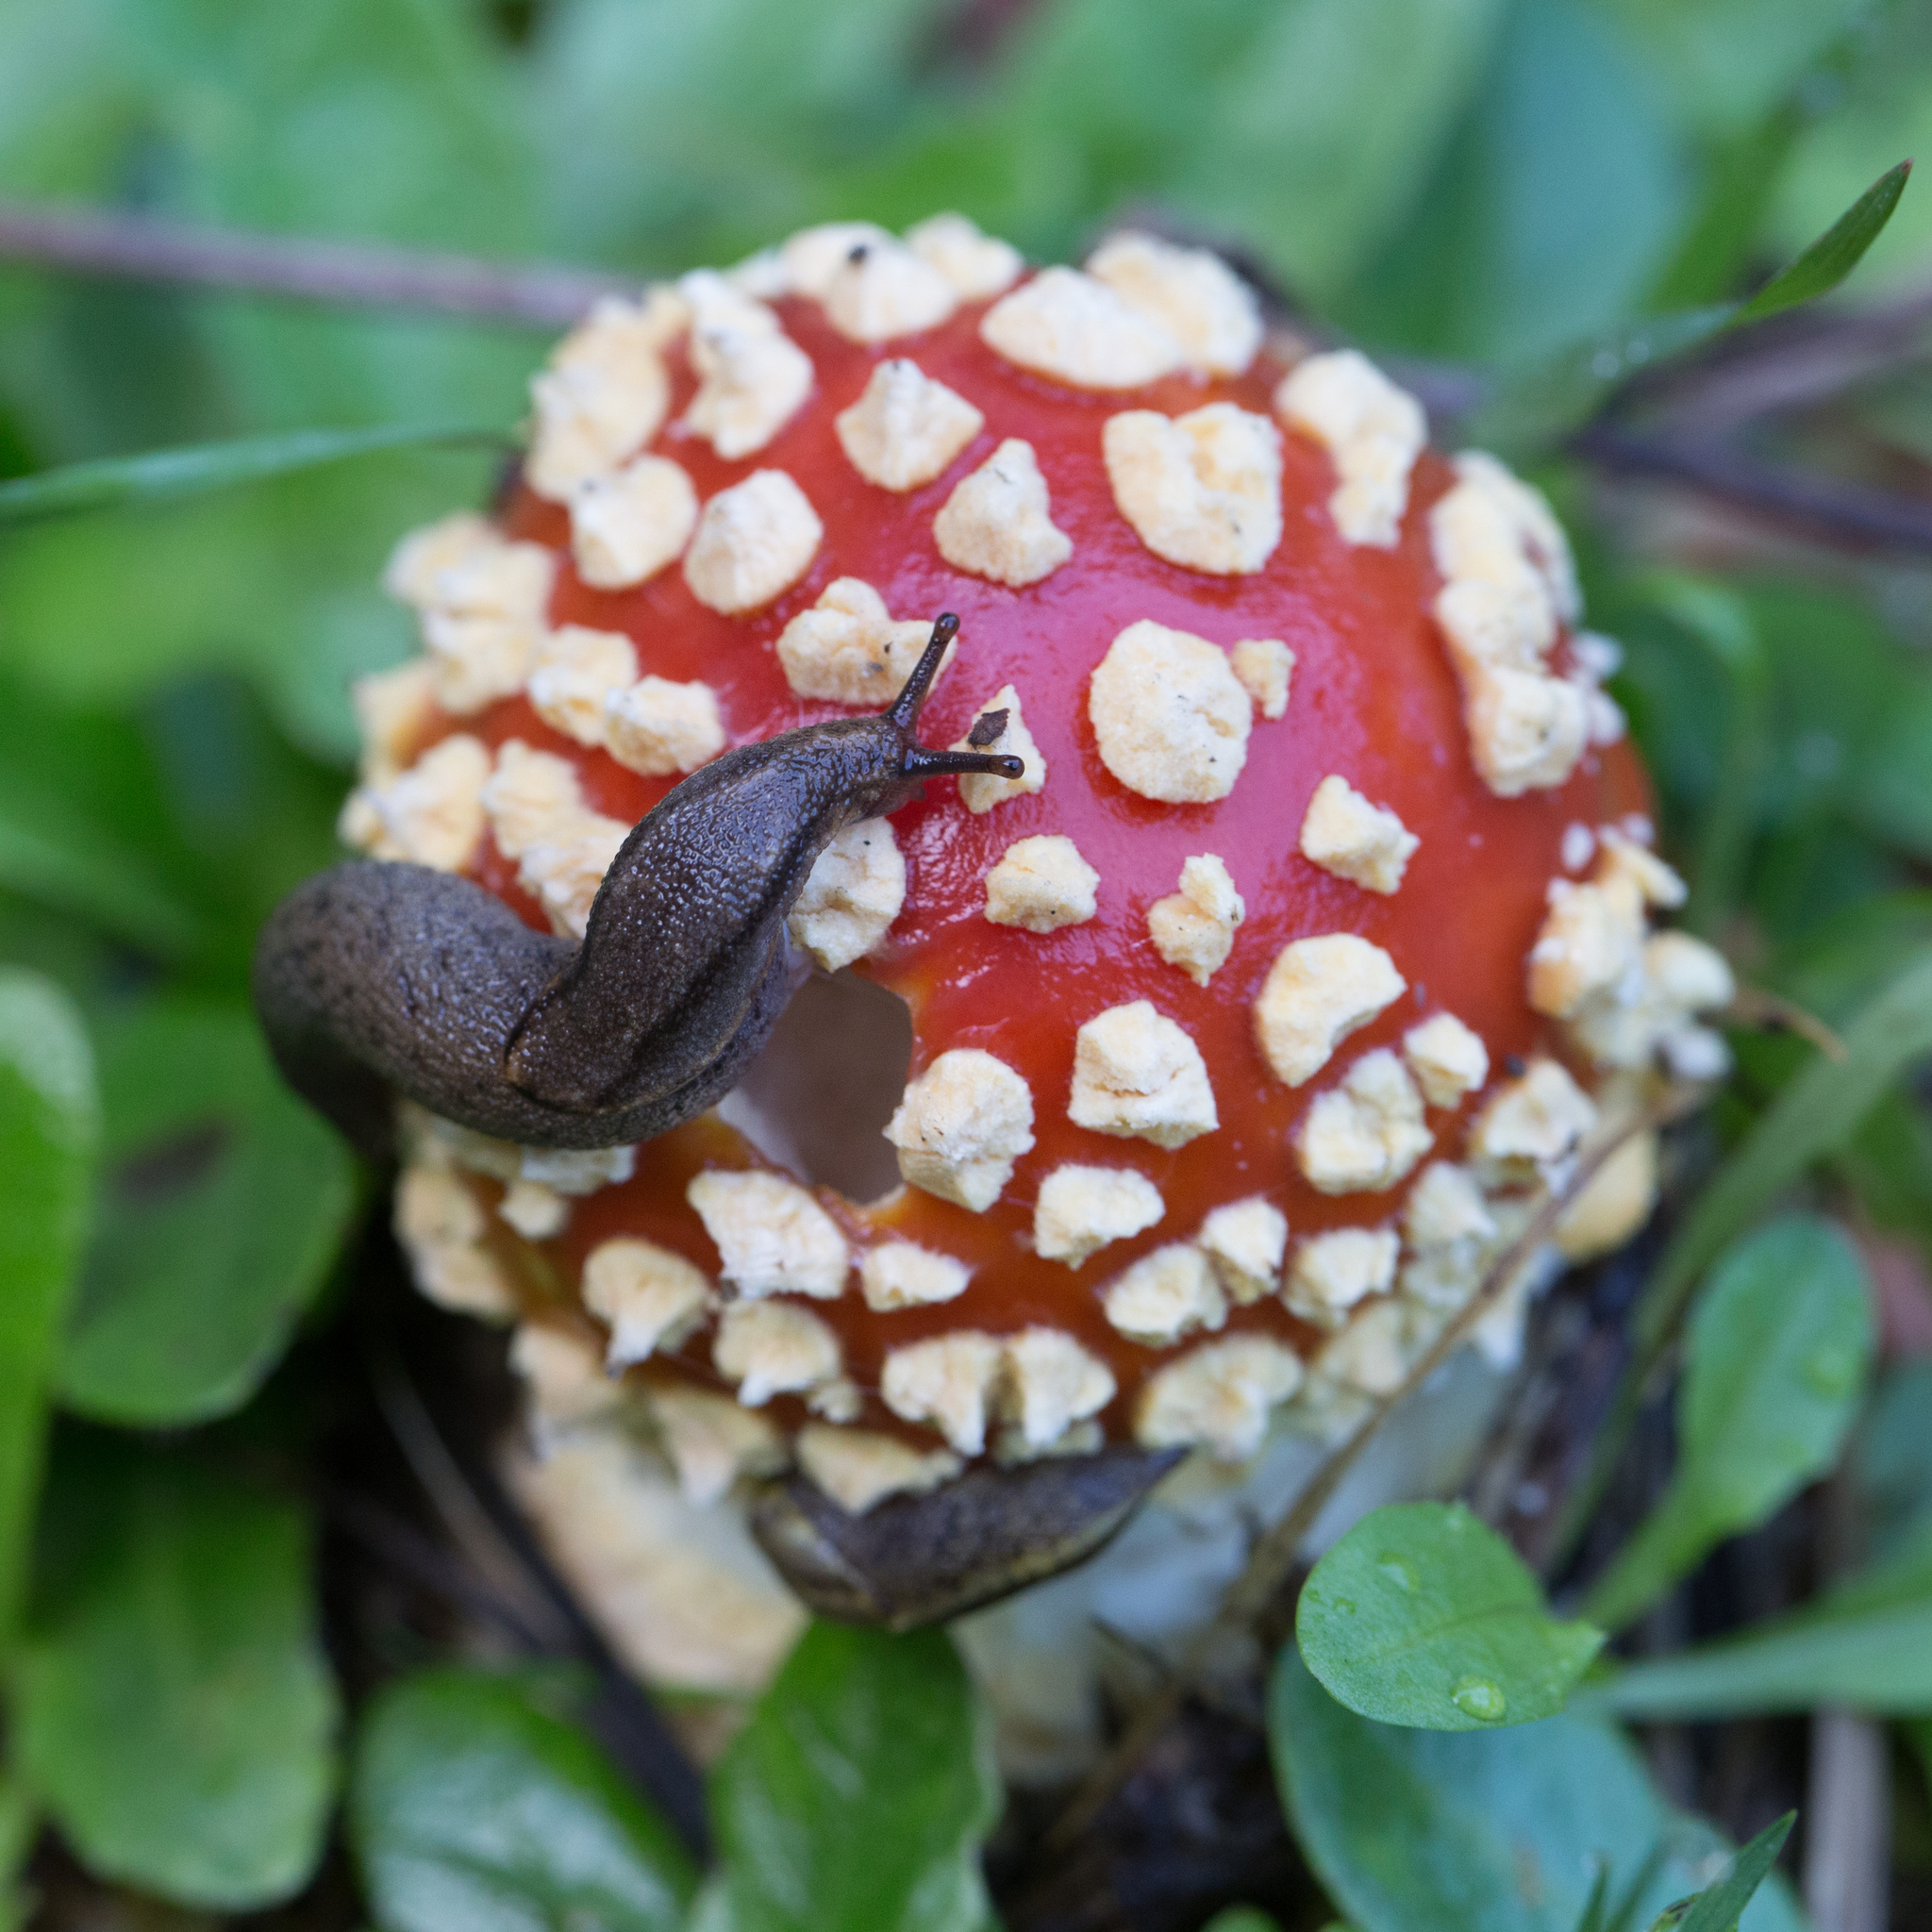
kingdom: Fungi
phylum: Basidiomycota
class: Agaricomycetes
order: Agaricales
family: Amanitaceae
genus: Amanita
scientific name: Amanita muscaria
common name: Fly agaric
